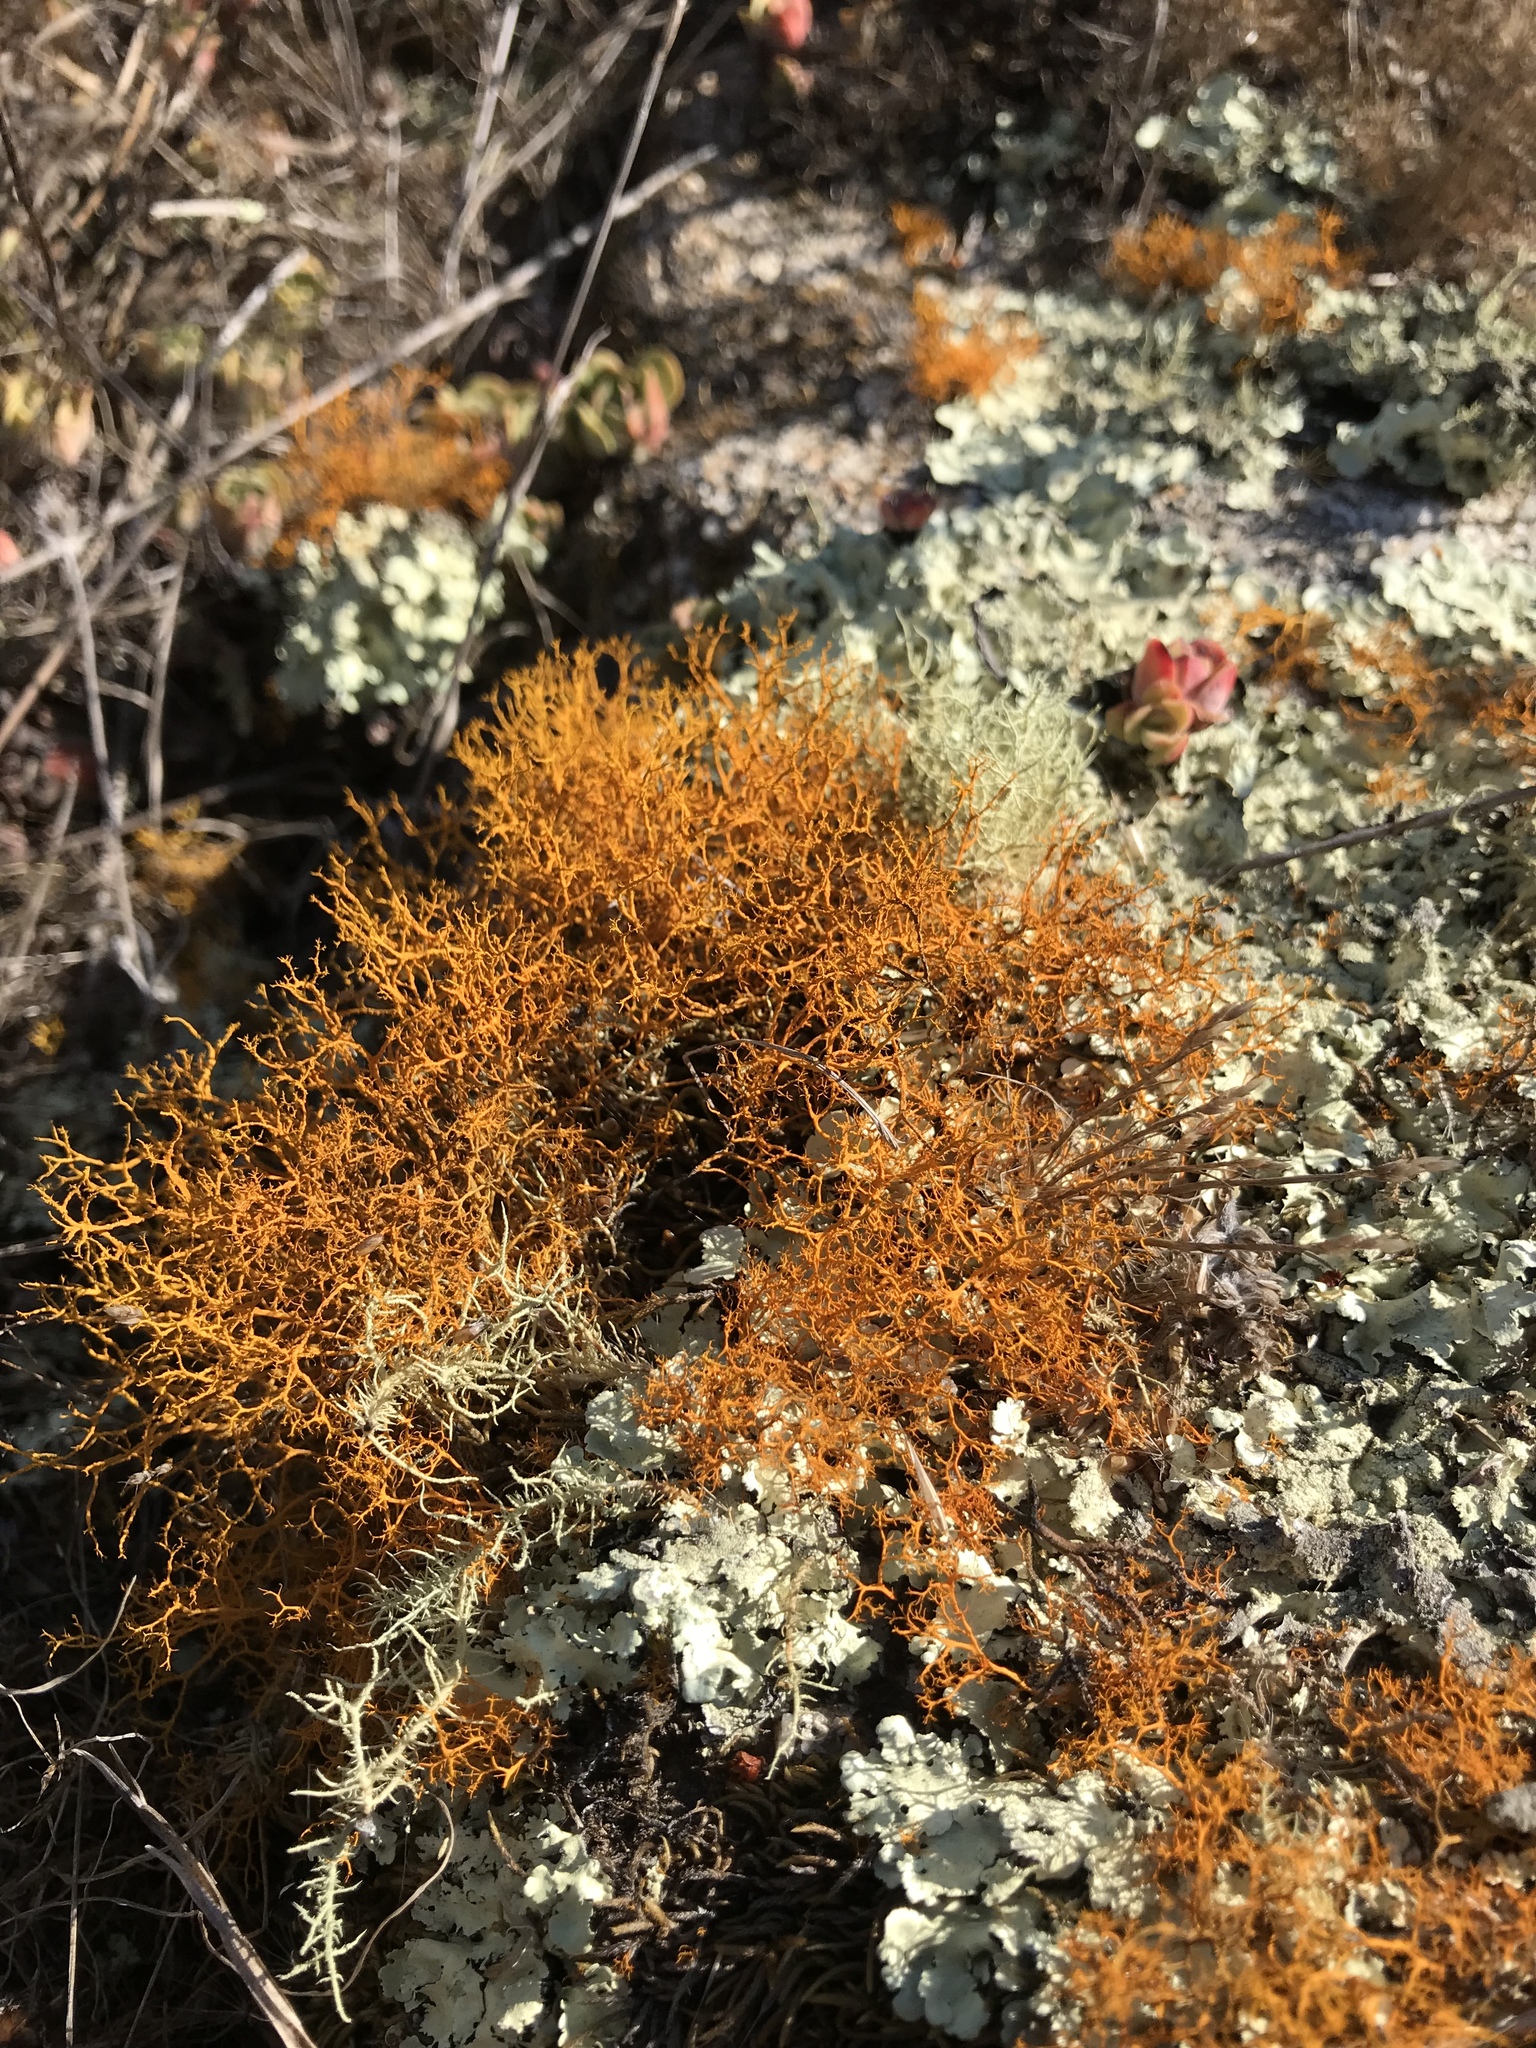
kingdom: Fungi
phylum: Ascomycota
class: Lecanoromycetes
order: Teloschistales
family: Teloschistaceae
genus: Teloschistes
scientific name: Teloschistes flavicans
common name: Golden hair-lichen
